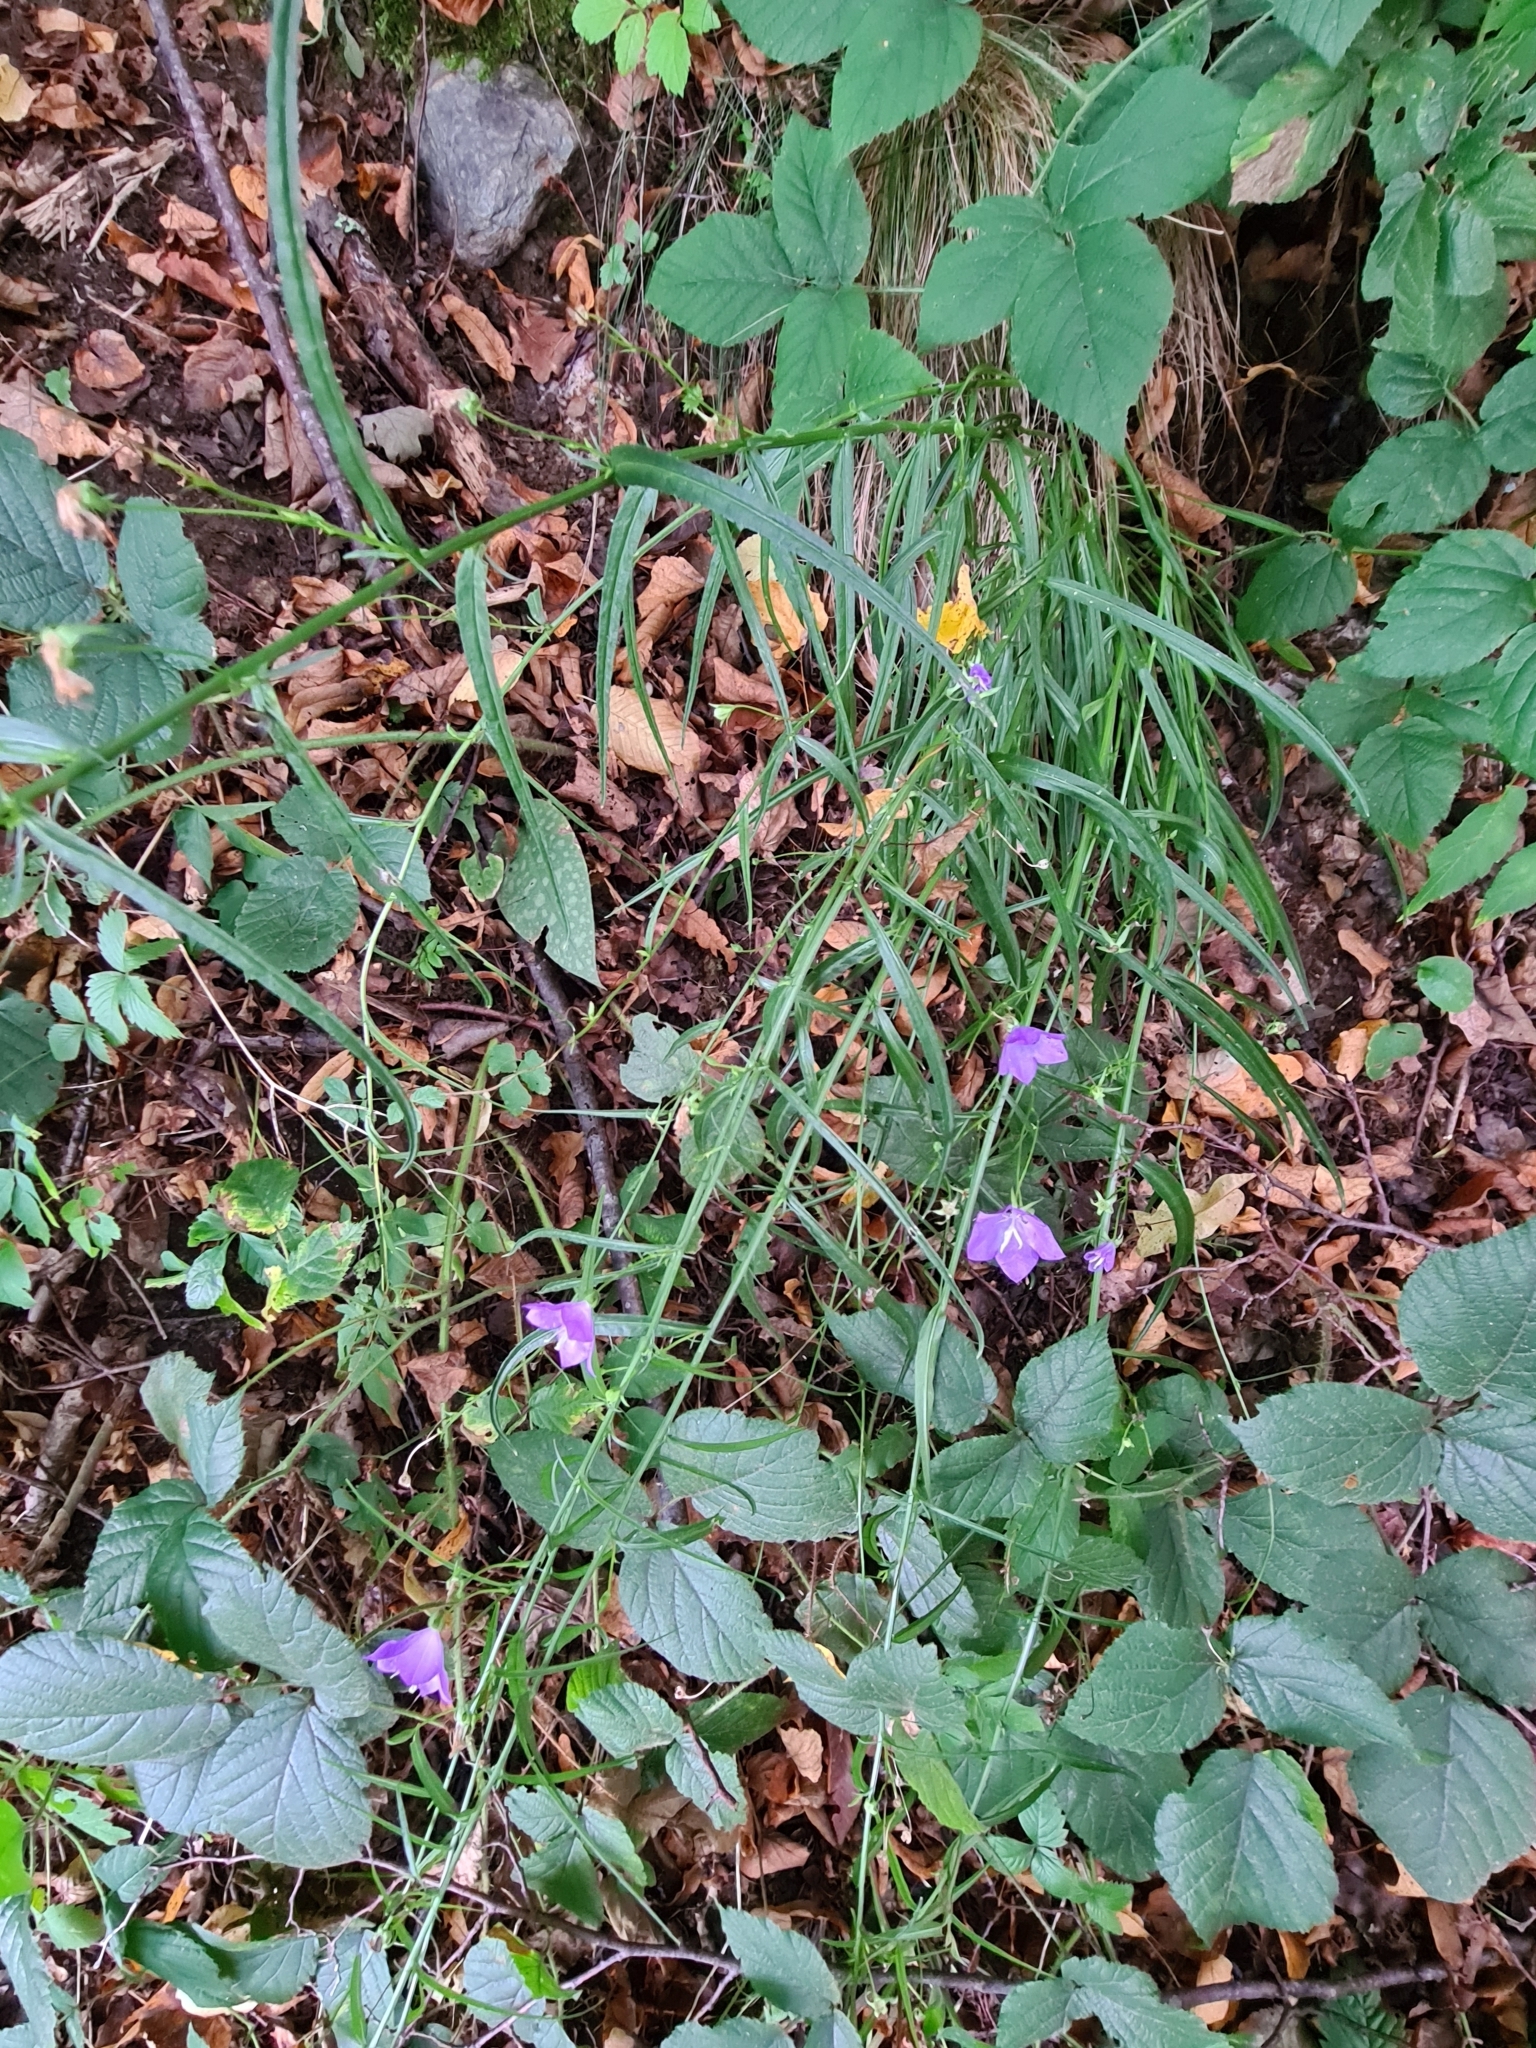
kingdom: Plantae
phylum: Tracheophyta
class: Magnoliopsida
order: Asterales
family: Campanulaceae
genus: Campanula
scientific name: Campanula persicifolia
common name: Peach-leaved bellflower
